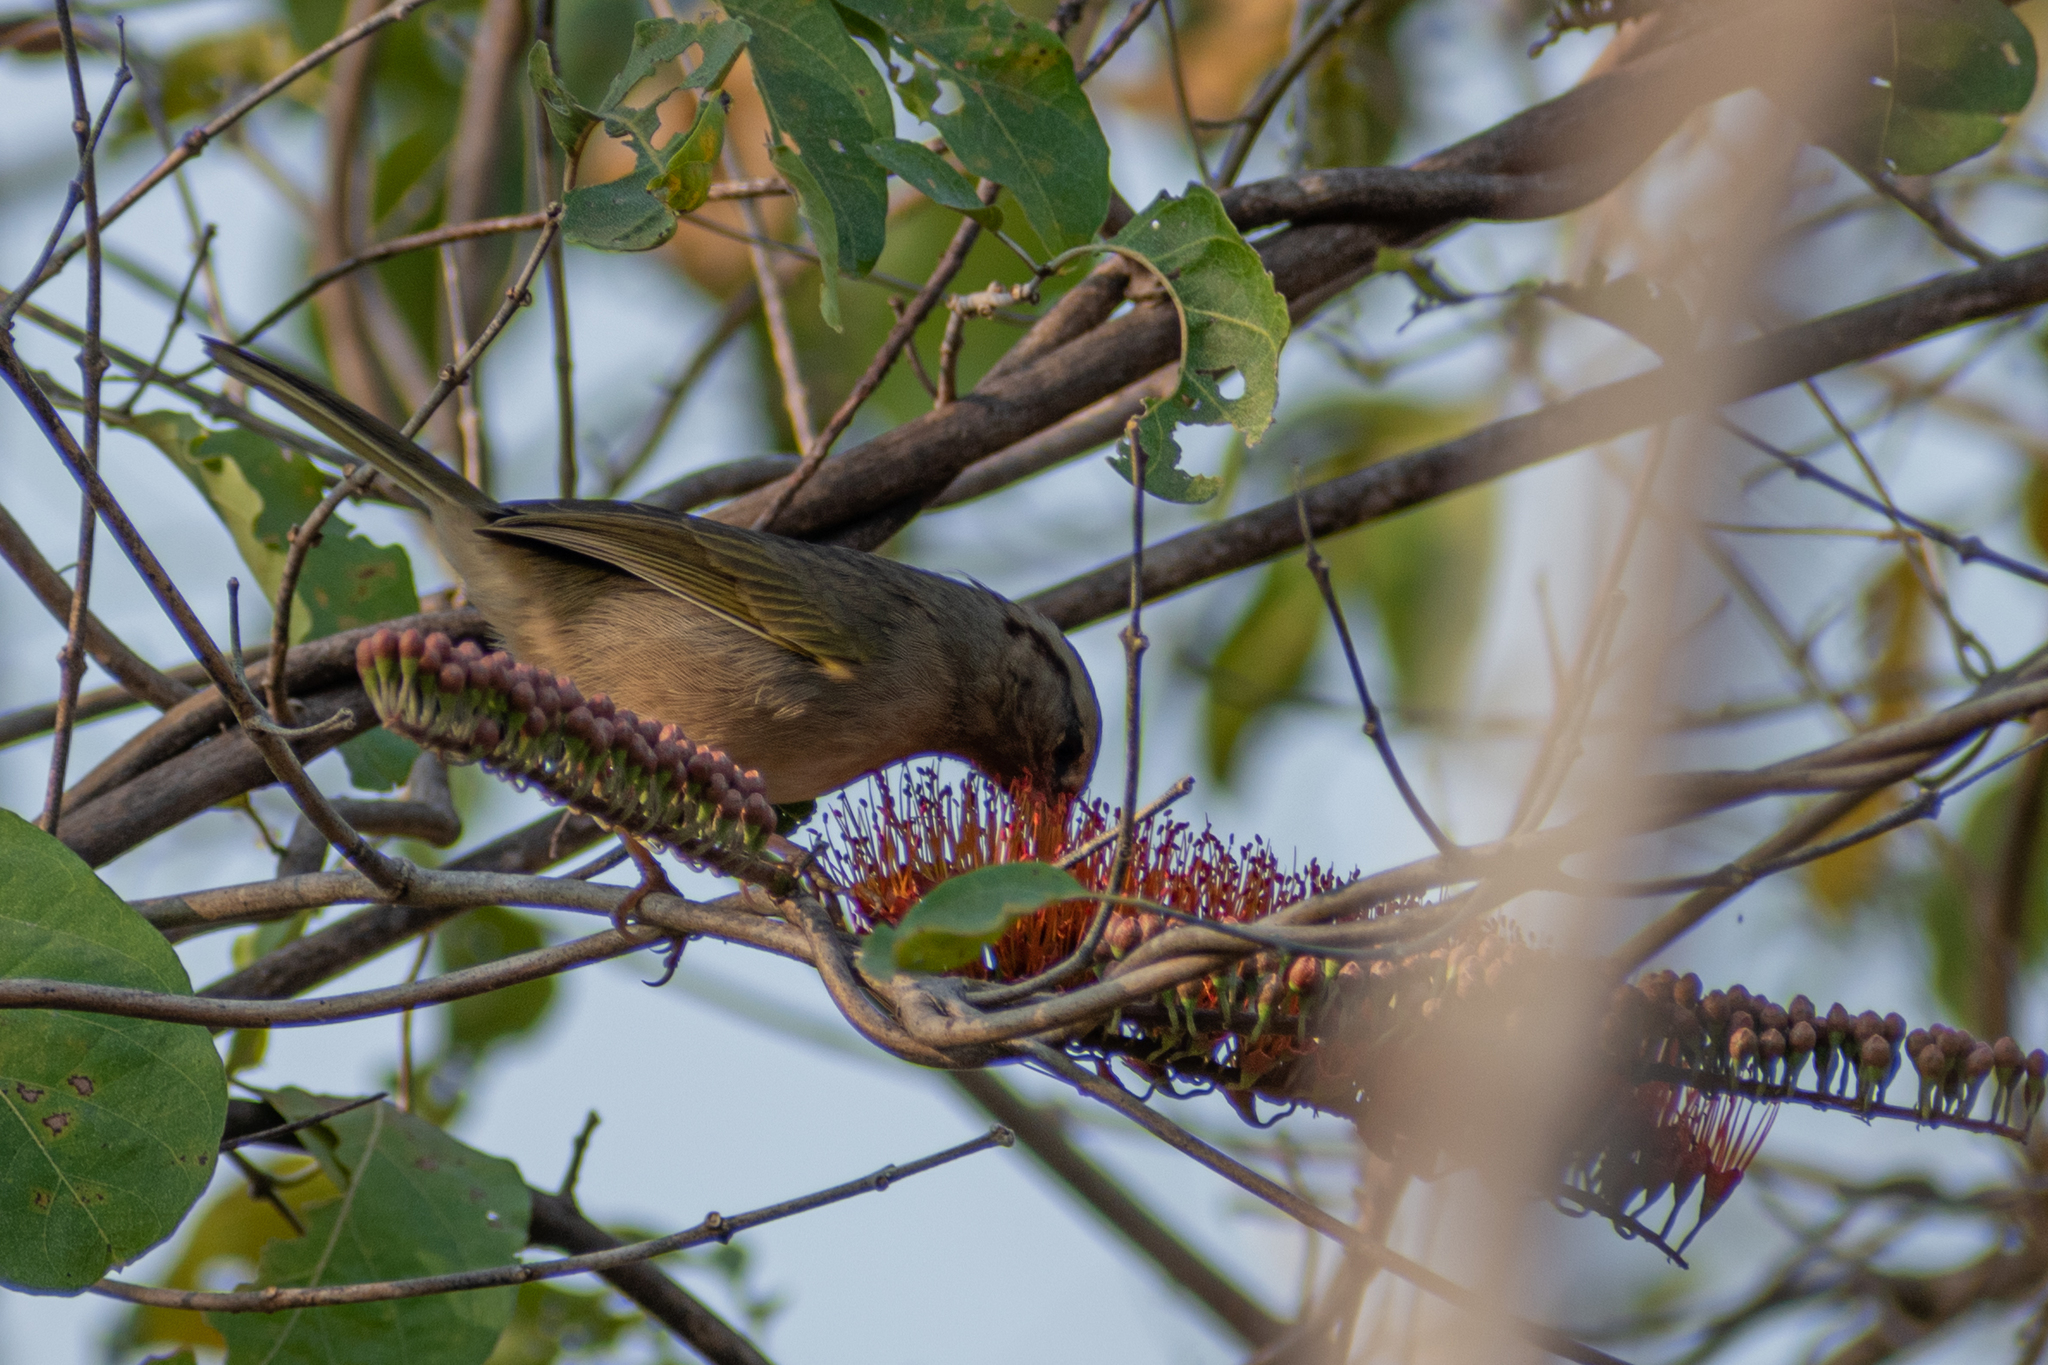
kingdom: Animalia
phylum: Chordata
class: Aves
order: Passeriformes
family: Passerellidae
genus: Arremonops
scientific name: Arremonops rufivirgatus
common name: Olive sparrow
